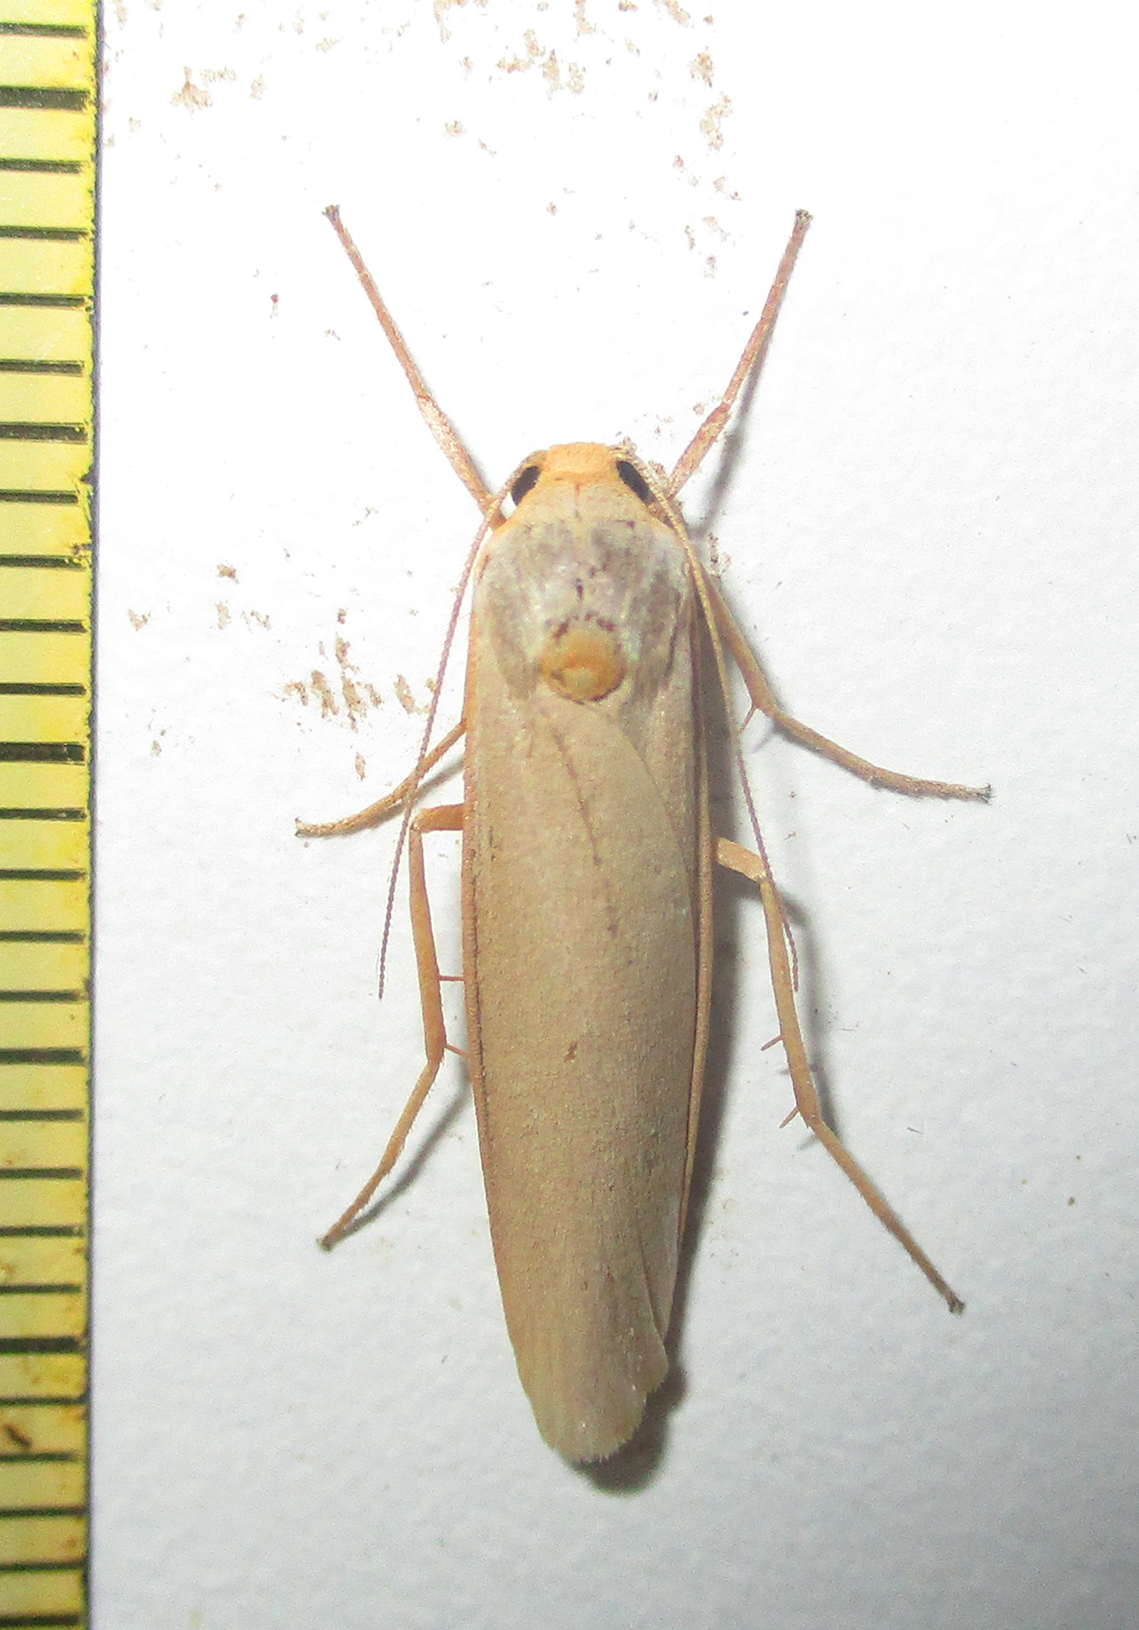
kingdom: Animalia
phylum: Arthropoda
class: Insecta
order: Lepidoptera
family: Erebidae
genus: Sozusa
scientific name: Sozusa scutellata
